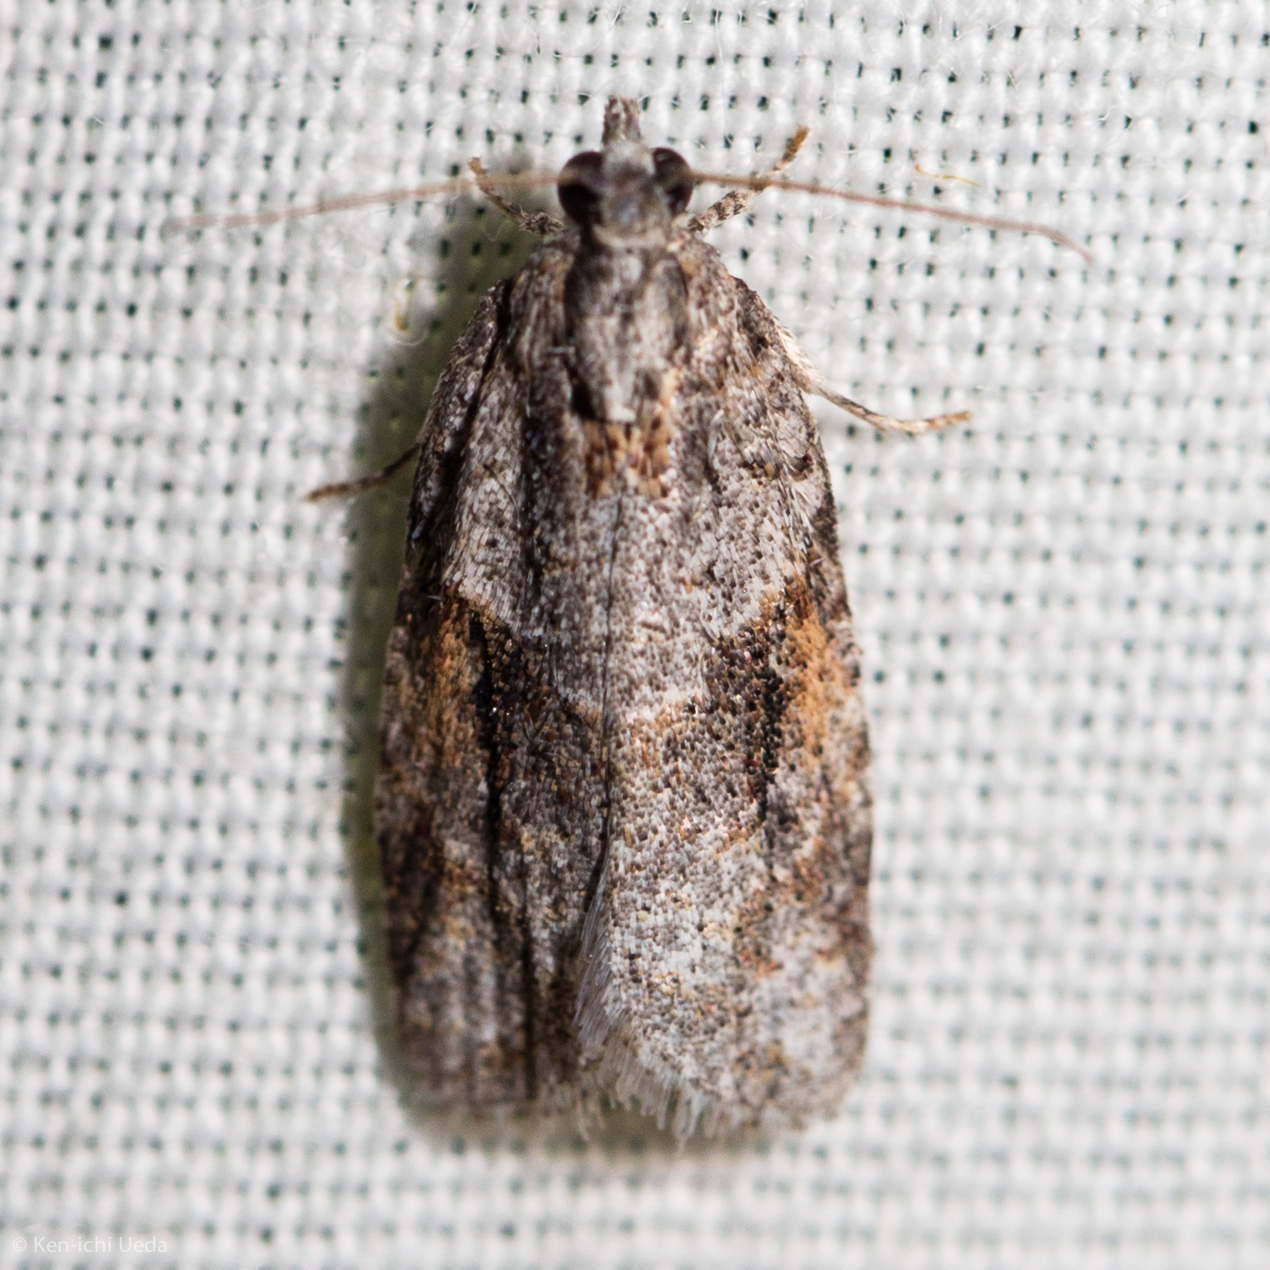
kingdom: Animalia
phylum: Arthropoda
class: Insecta
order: Lepidoptera
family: Tortricidae
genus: Acropolitis
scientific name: Acropolitis rudisana
